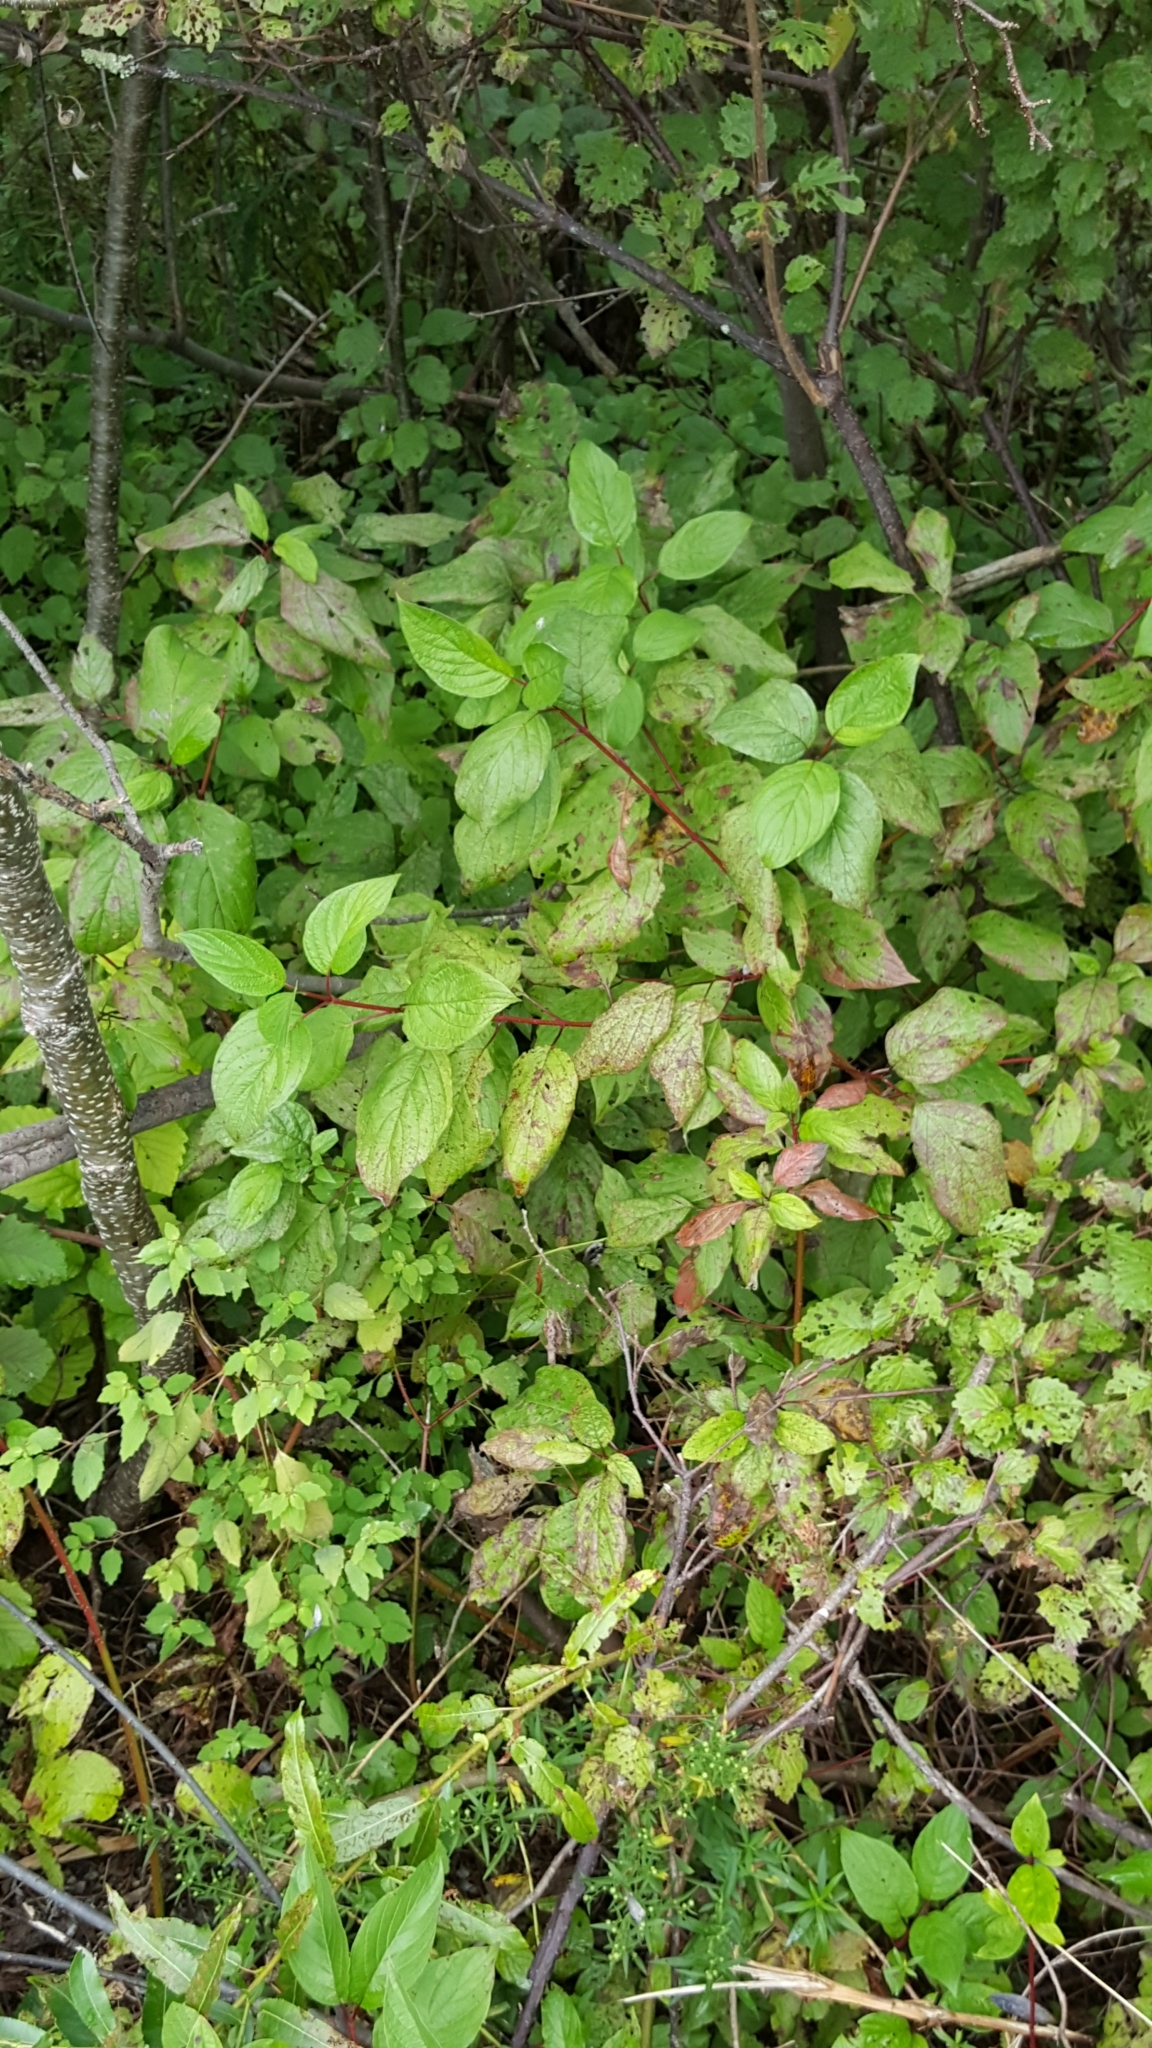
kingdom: Plantae
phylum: Tracheophyta
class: Magnoliopsida
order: Cornales
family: Cornaceae
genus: Cornus
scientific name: Cornus sericea
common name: Red-osier dogwood
